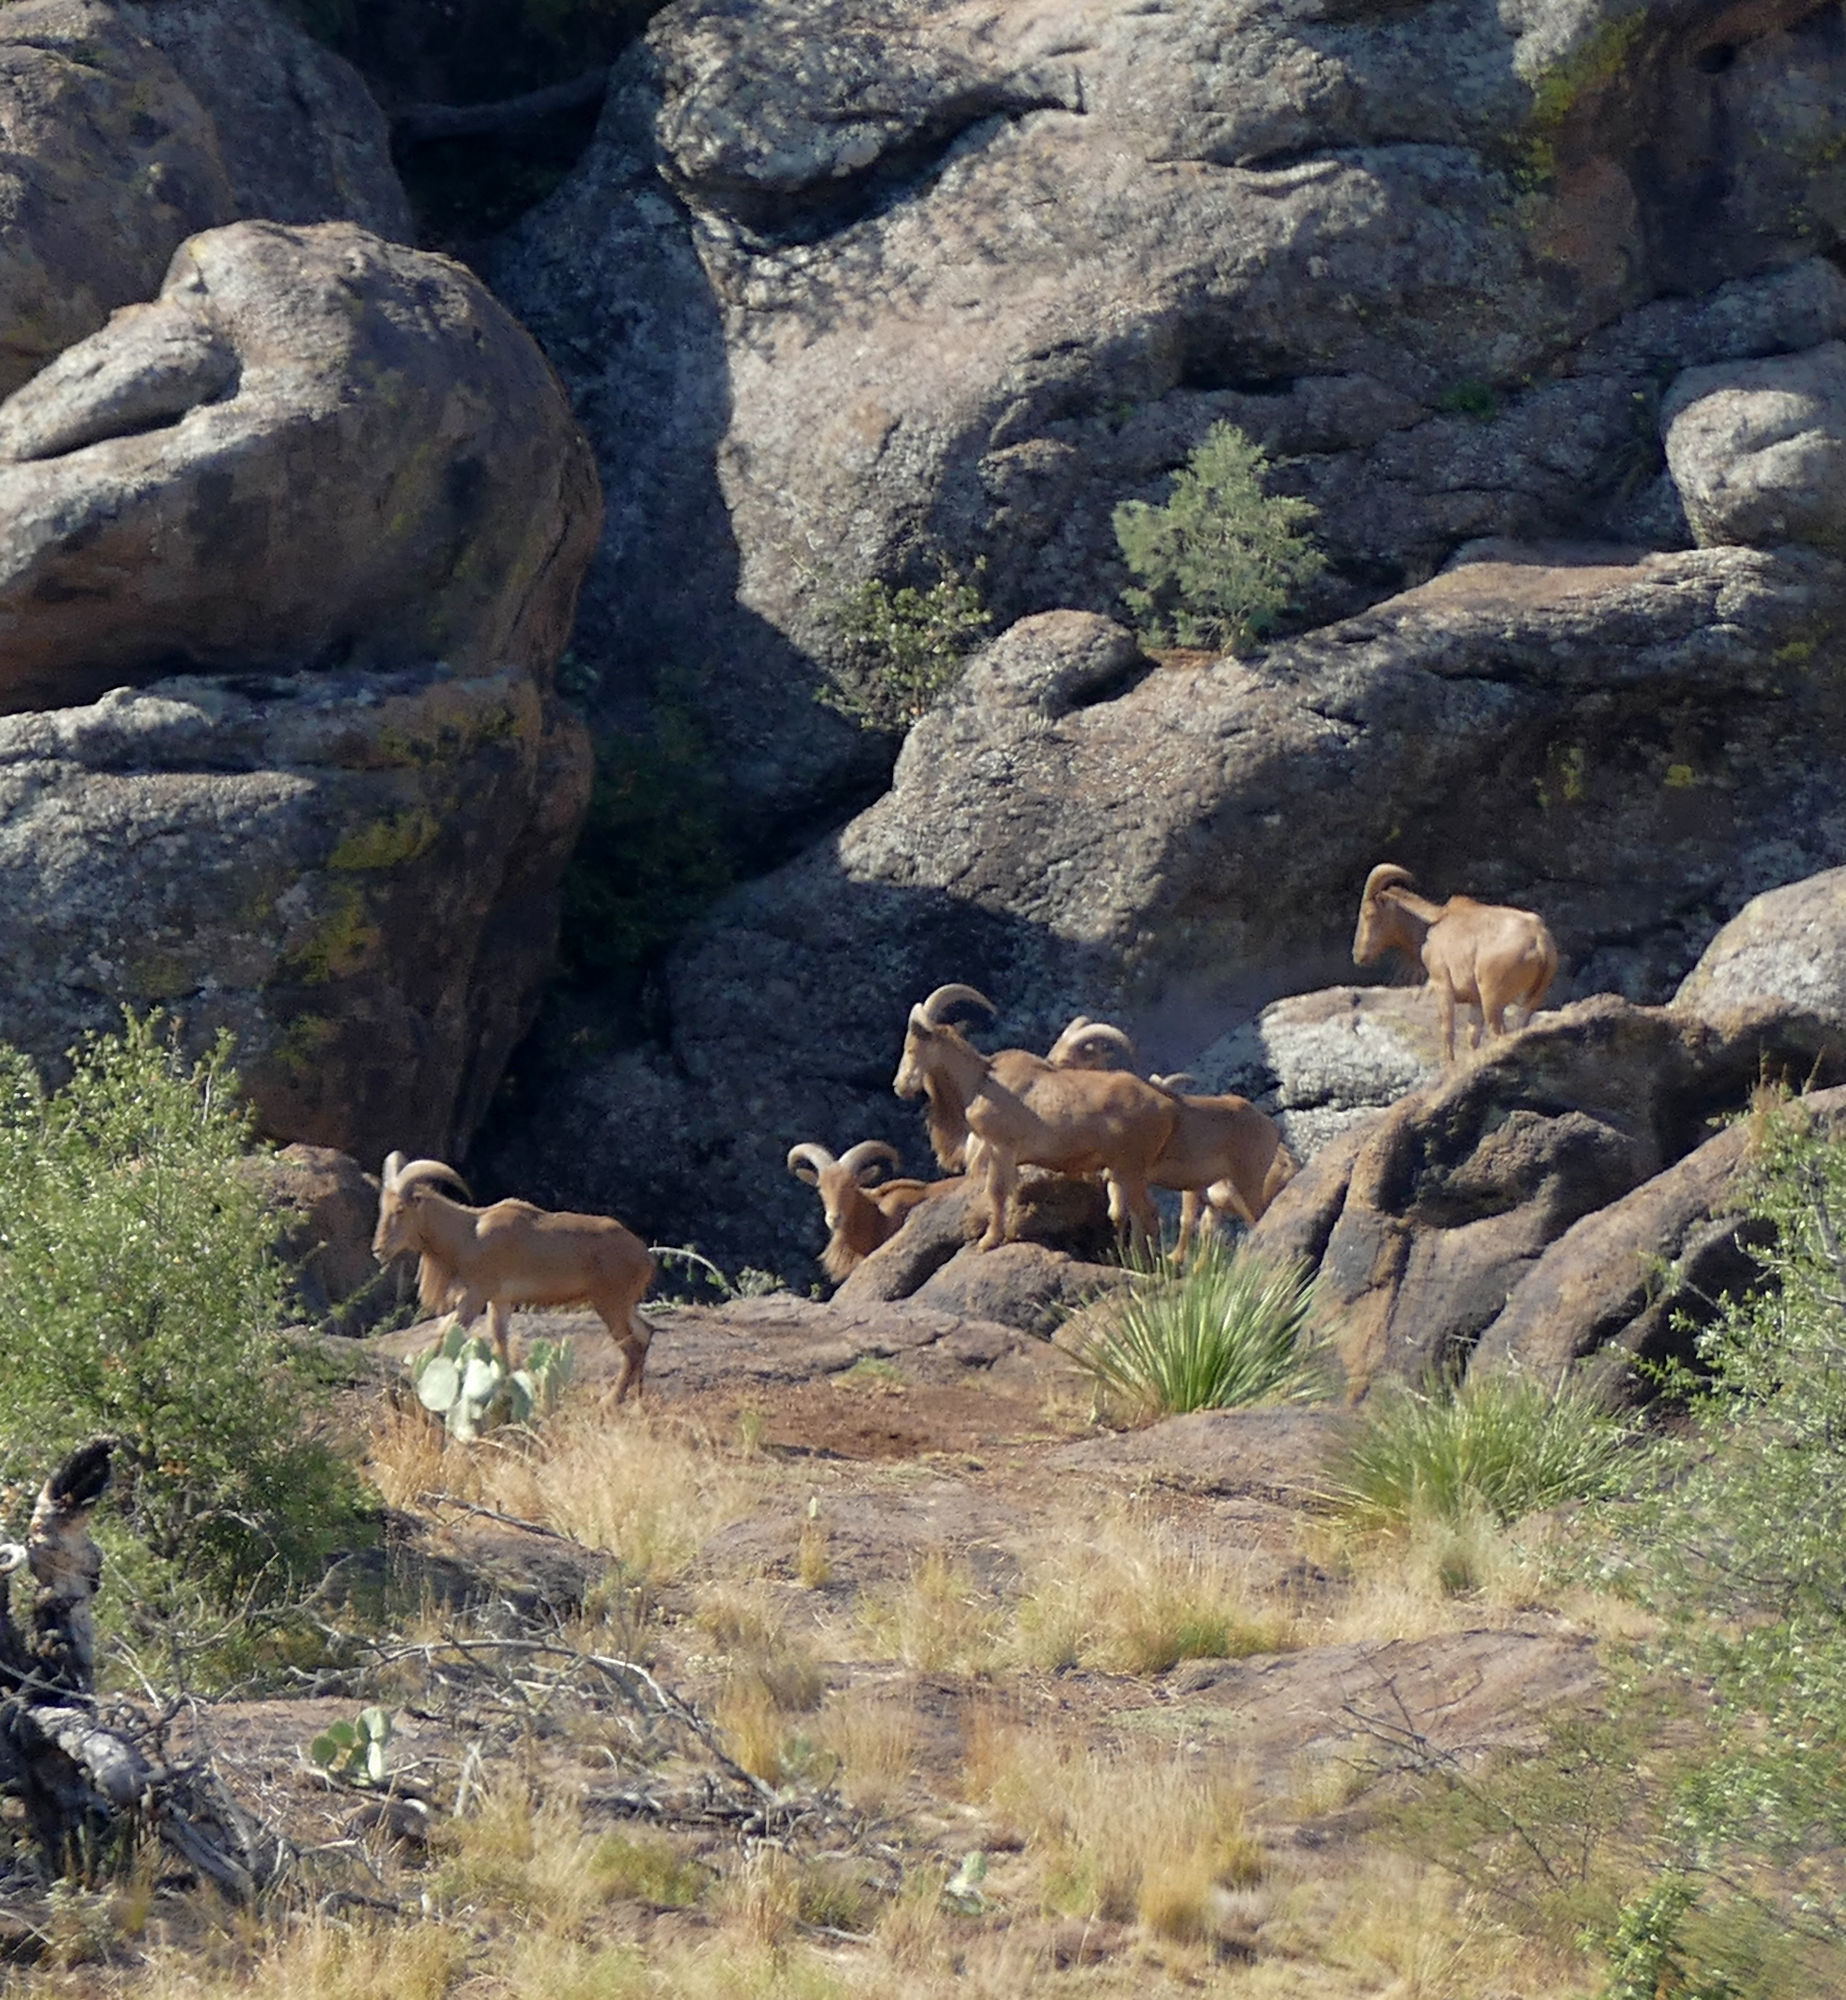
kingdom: Animalia
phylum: Chordata
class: Mammalia
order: Artiodactyla
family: Bovidae
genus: Ammotragus
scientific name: Ammotragus lervia
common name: Barbary sheep
